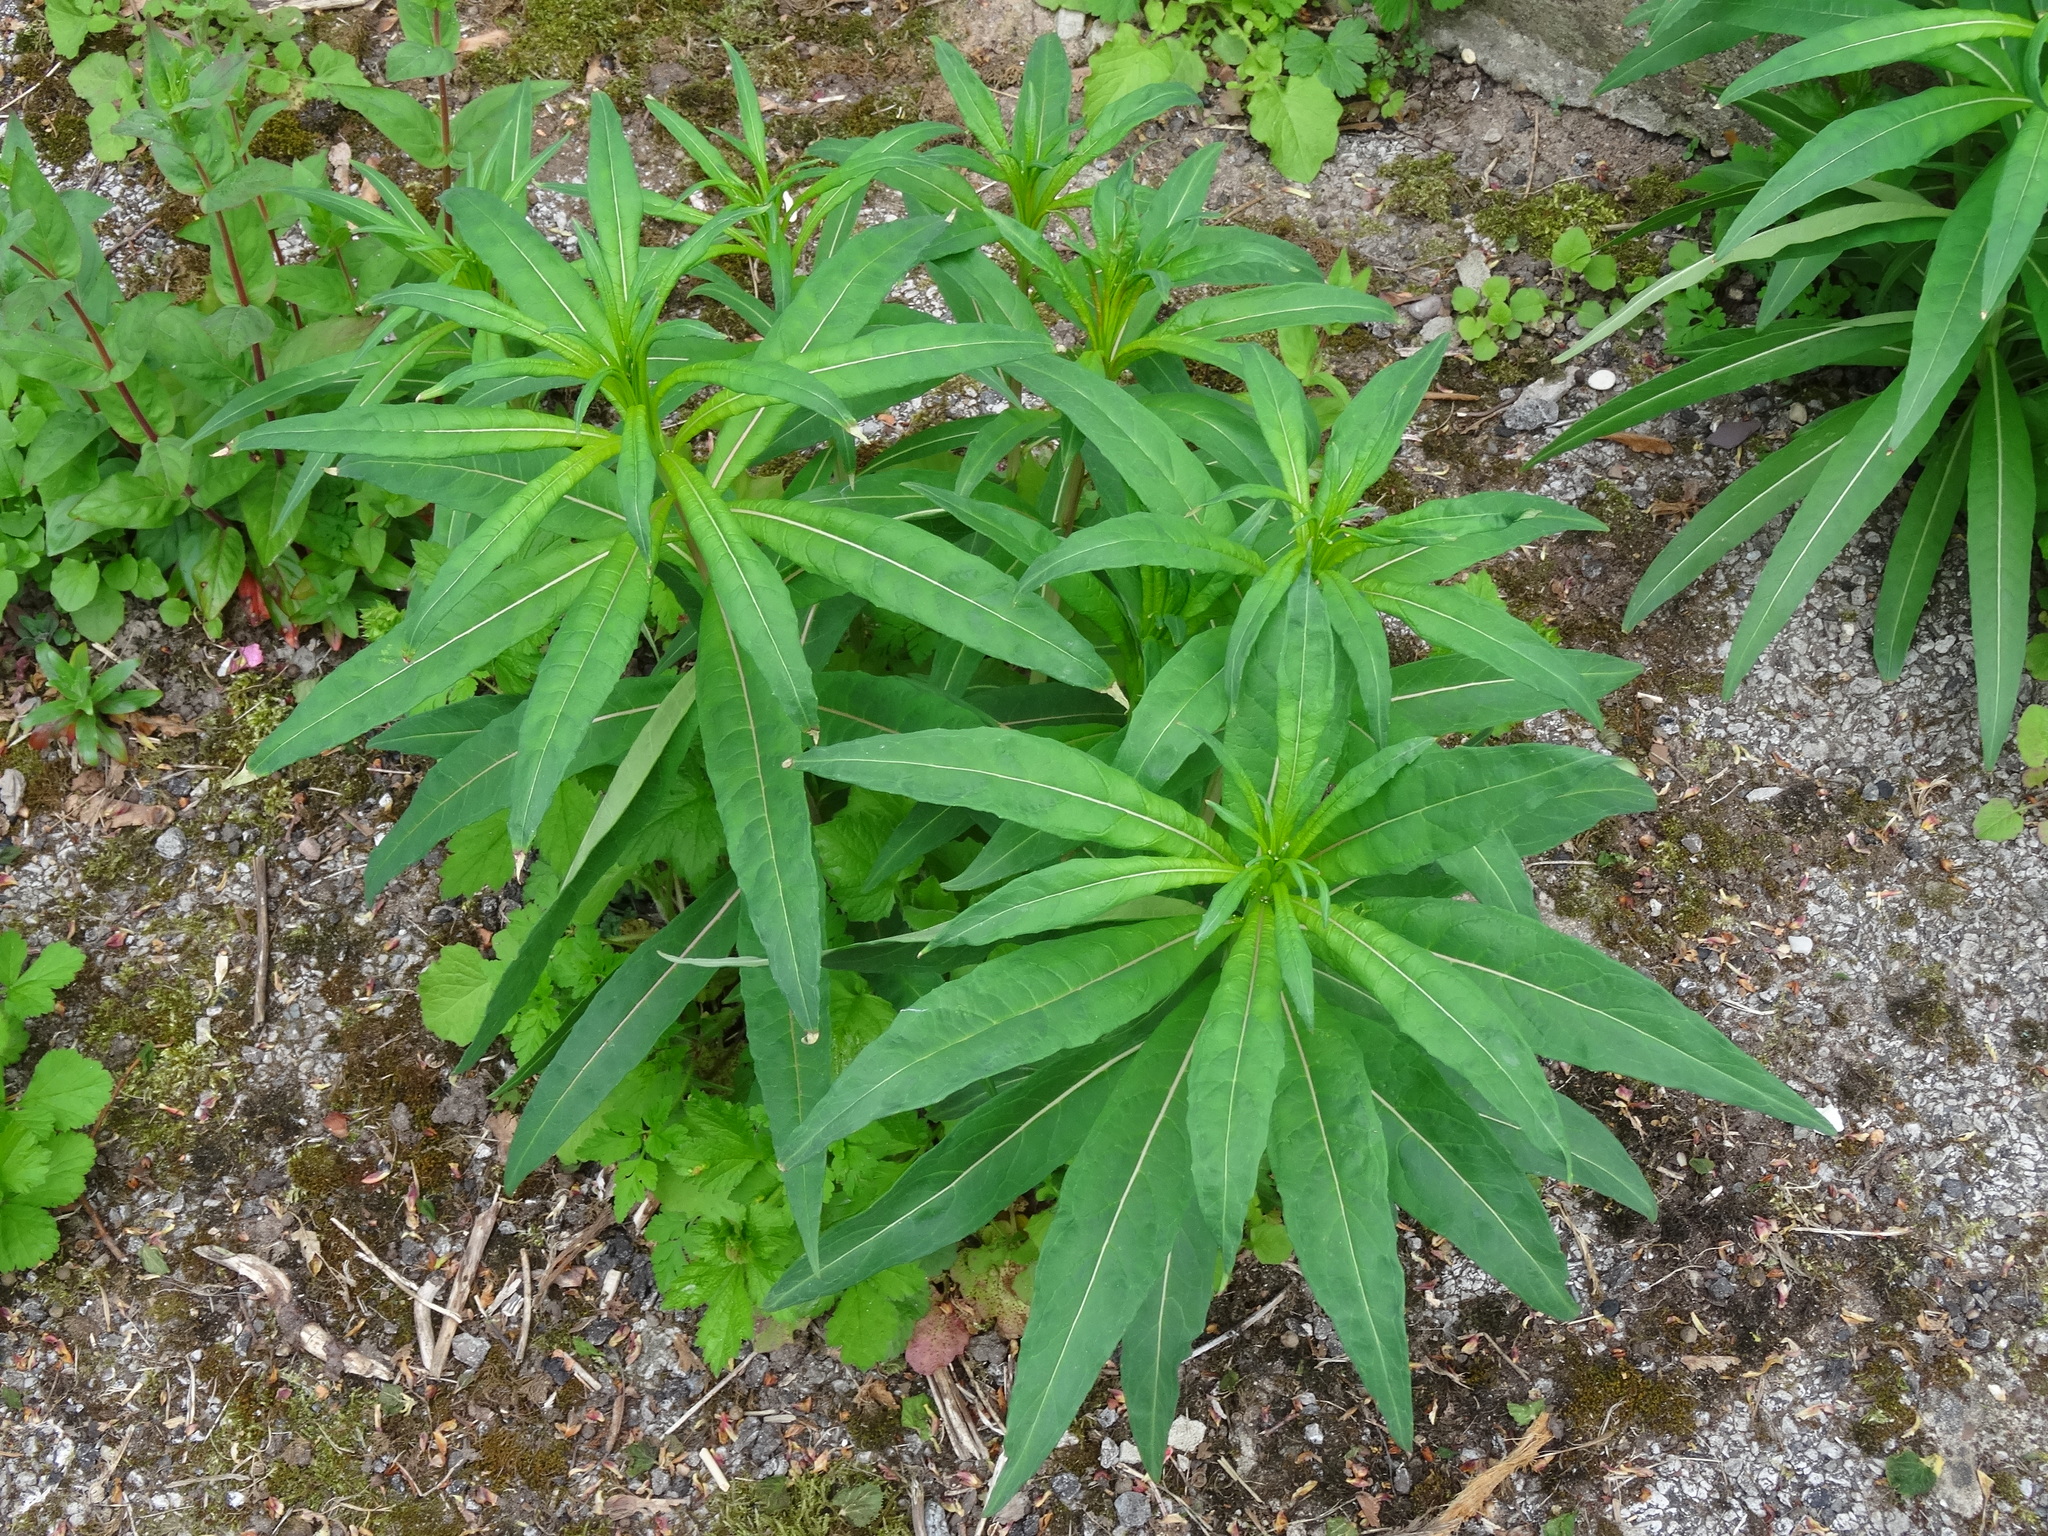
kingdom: Plantae
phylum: Tracheophyta
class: Magnoliopsida
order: Myrtales
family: Onagraceae
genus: Chamaenerion
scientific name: Chamaenerion angustifolium
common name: Fireweed
